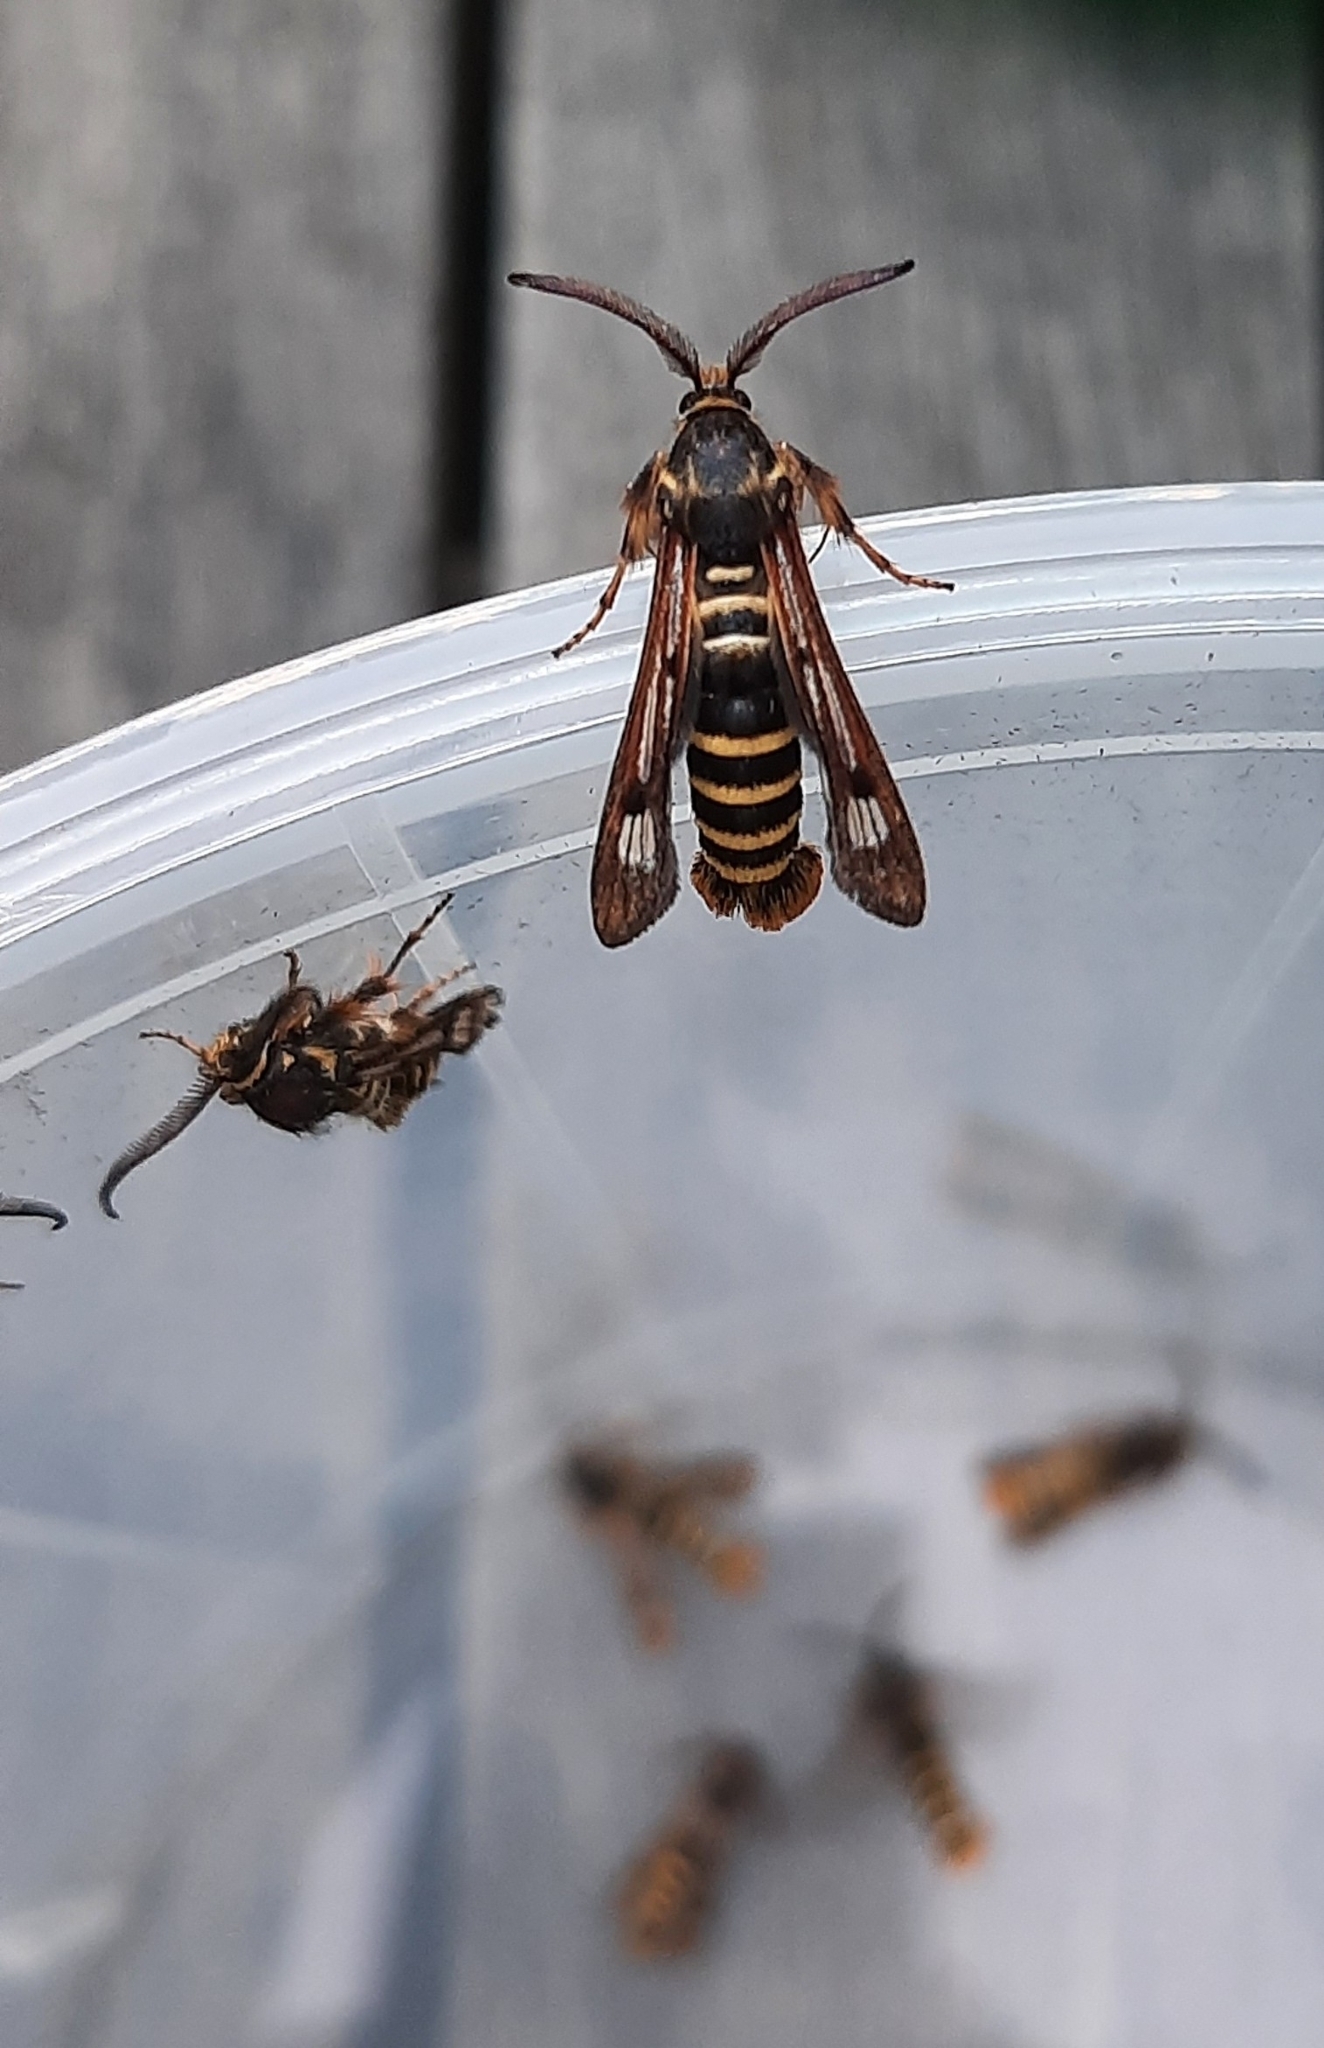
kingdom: Animalia
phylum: Arthropoda
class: Insecta
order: Lepidoptera
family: Sesiidae
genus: Pennisetia
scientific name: Pennisetia hylaeiformis
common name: Raspberry clearwing
